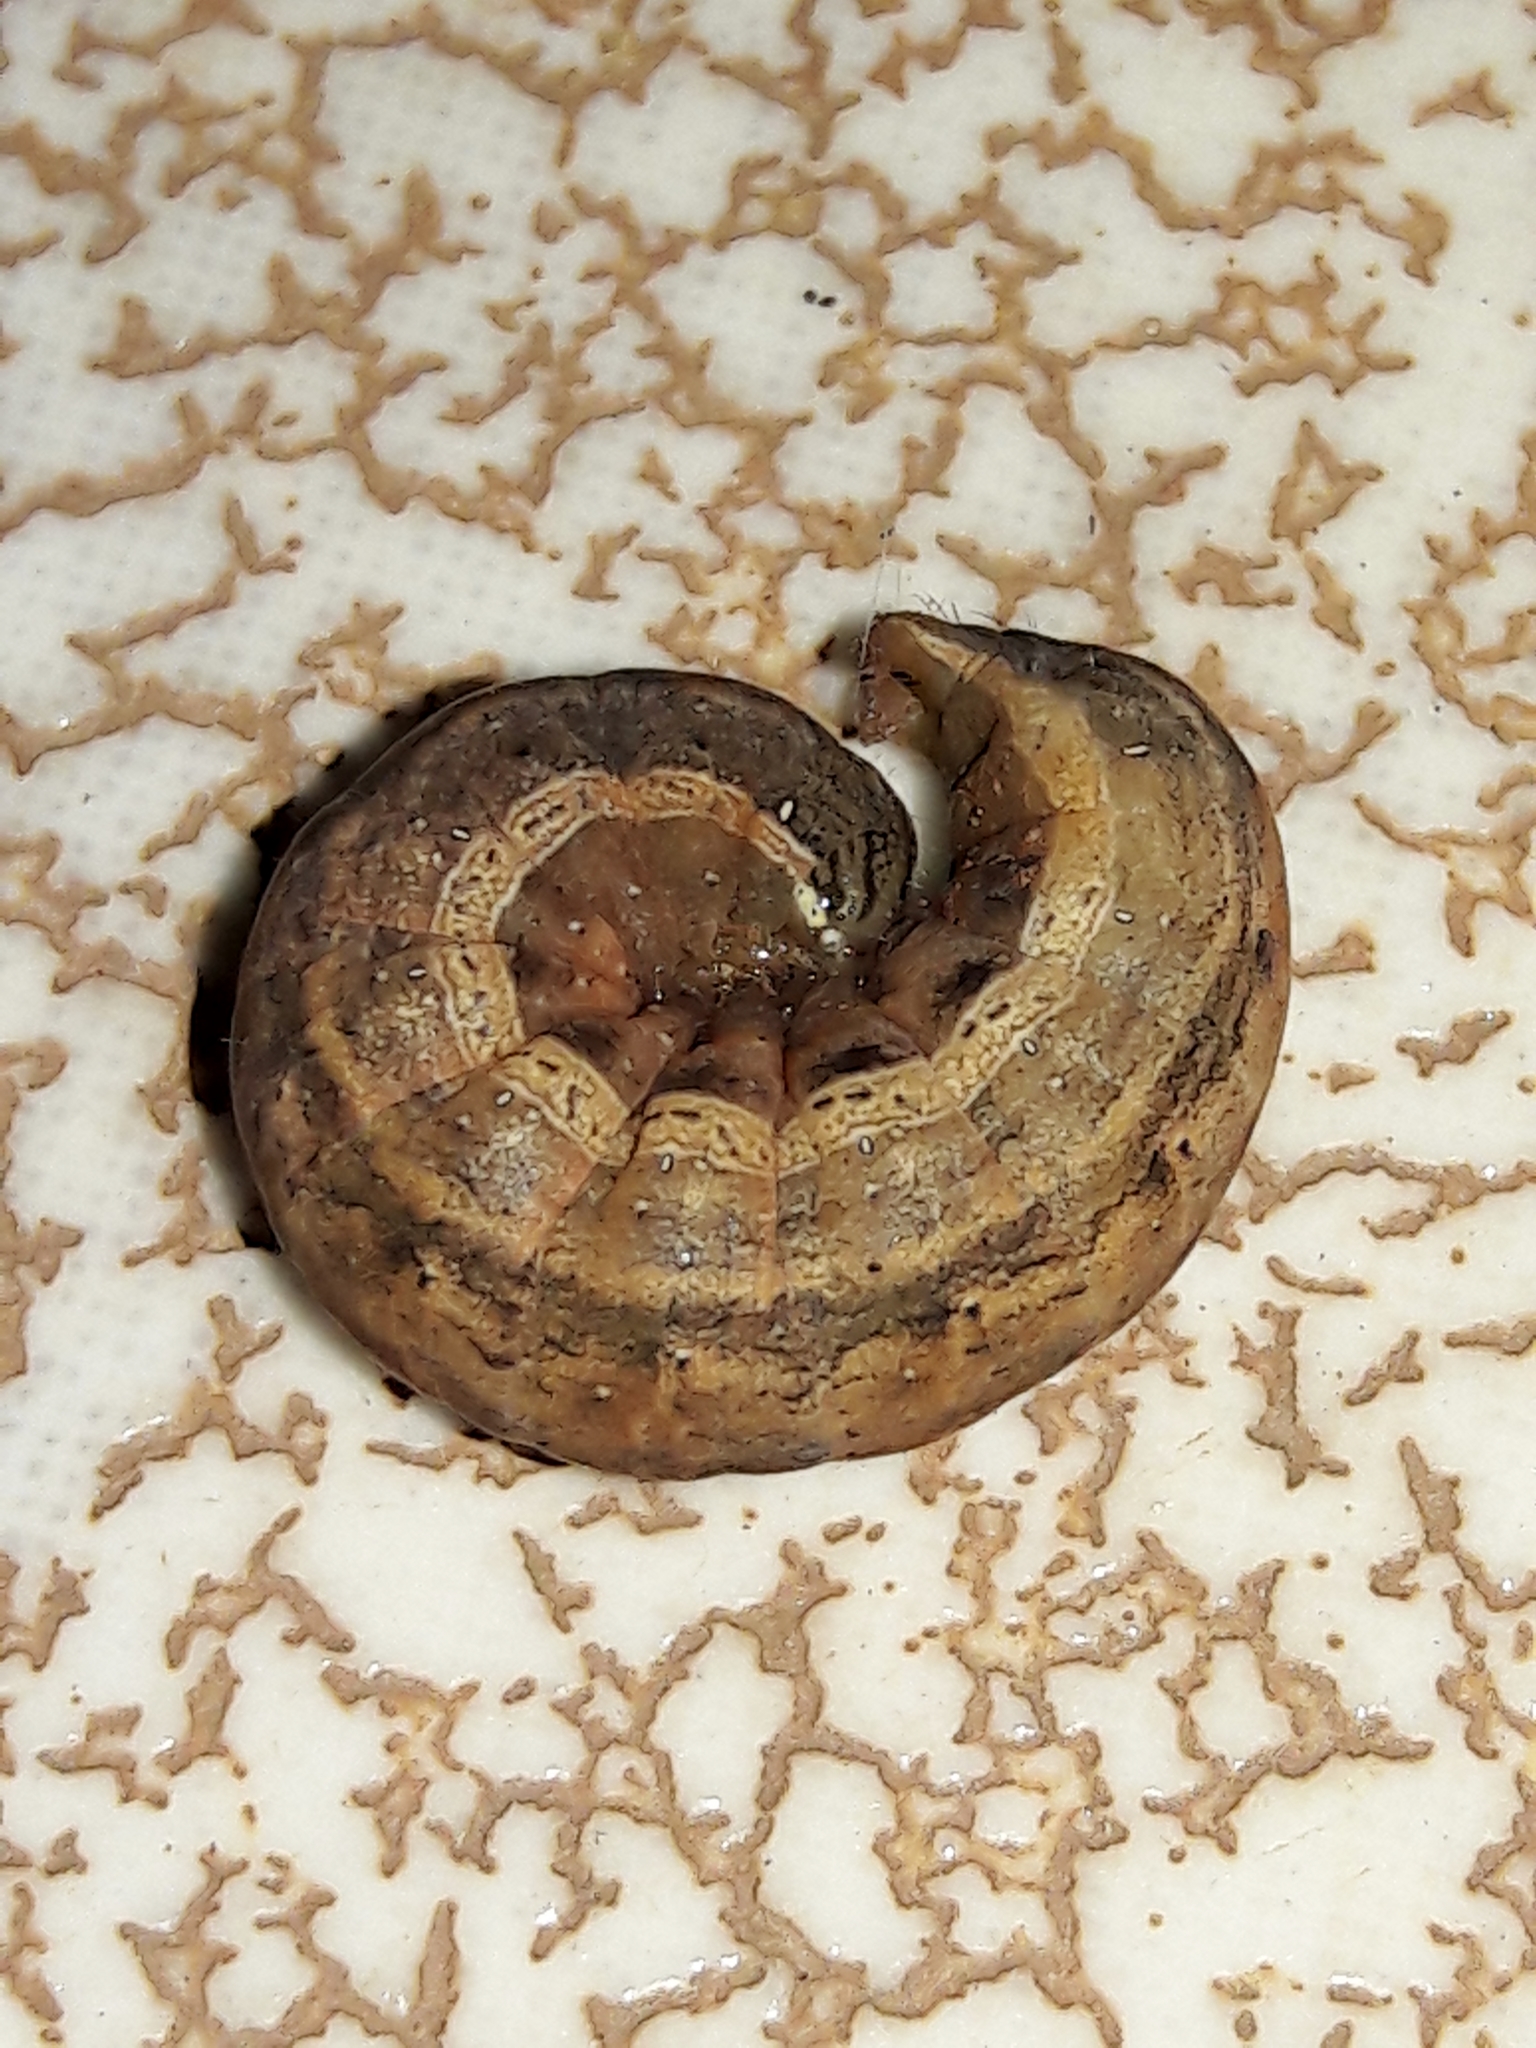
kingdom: Animalia
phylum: Arthropoda
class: Insecta
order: Lepidoptera
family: Noctuidae
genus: Spodoptera
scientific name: Spodoptera frugiperda
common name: Fall armyworm
